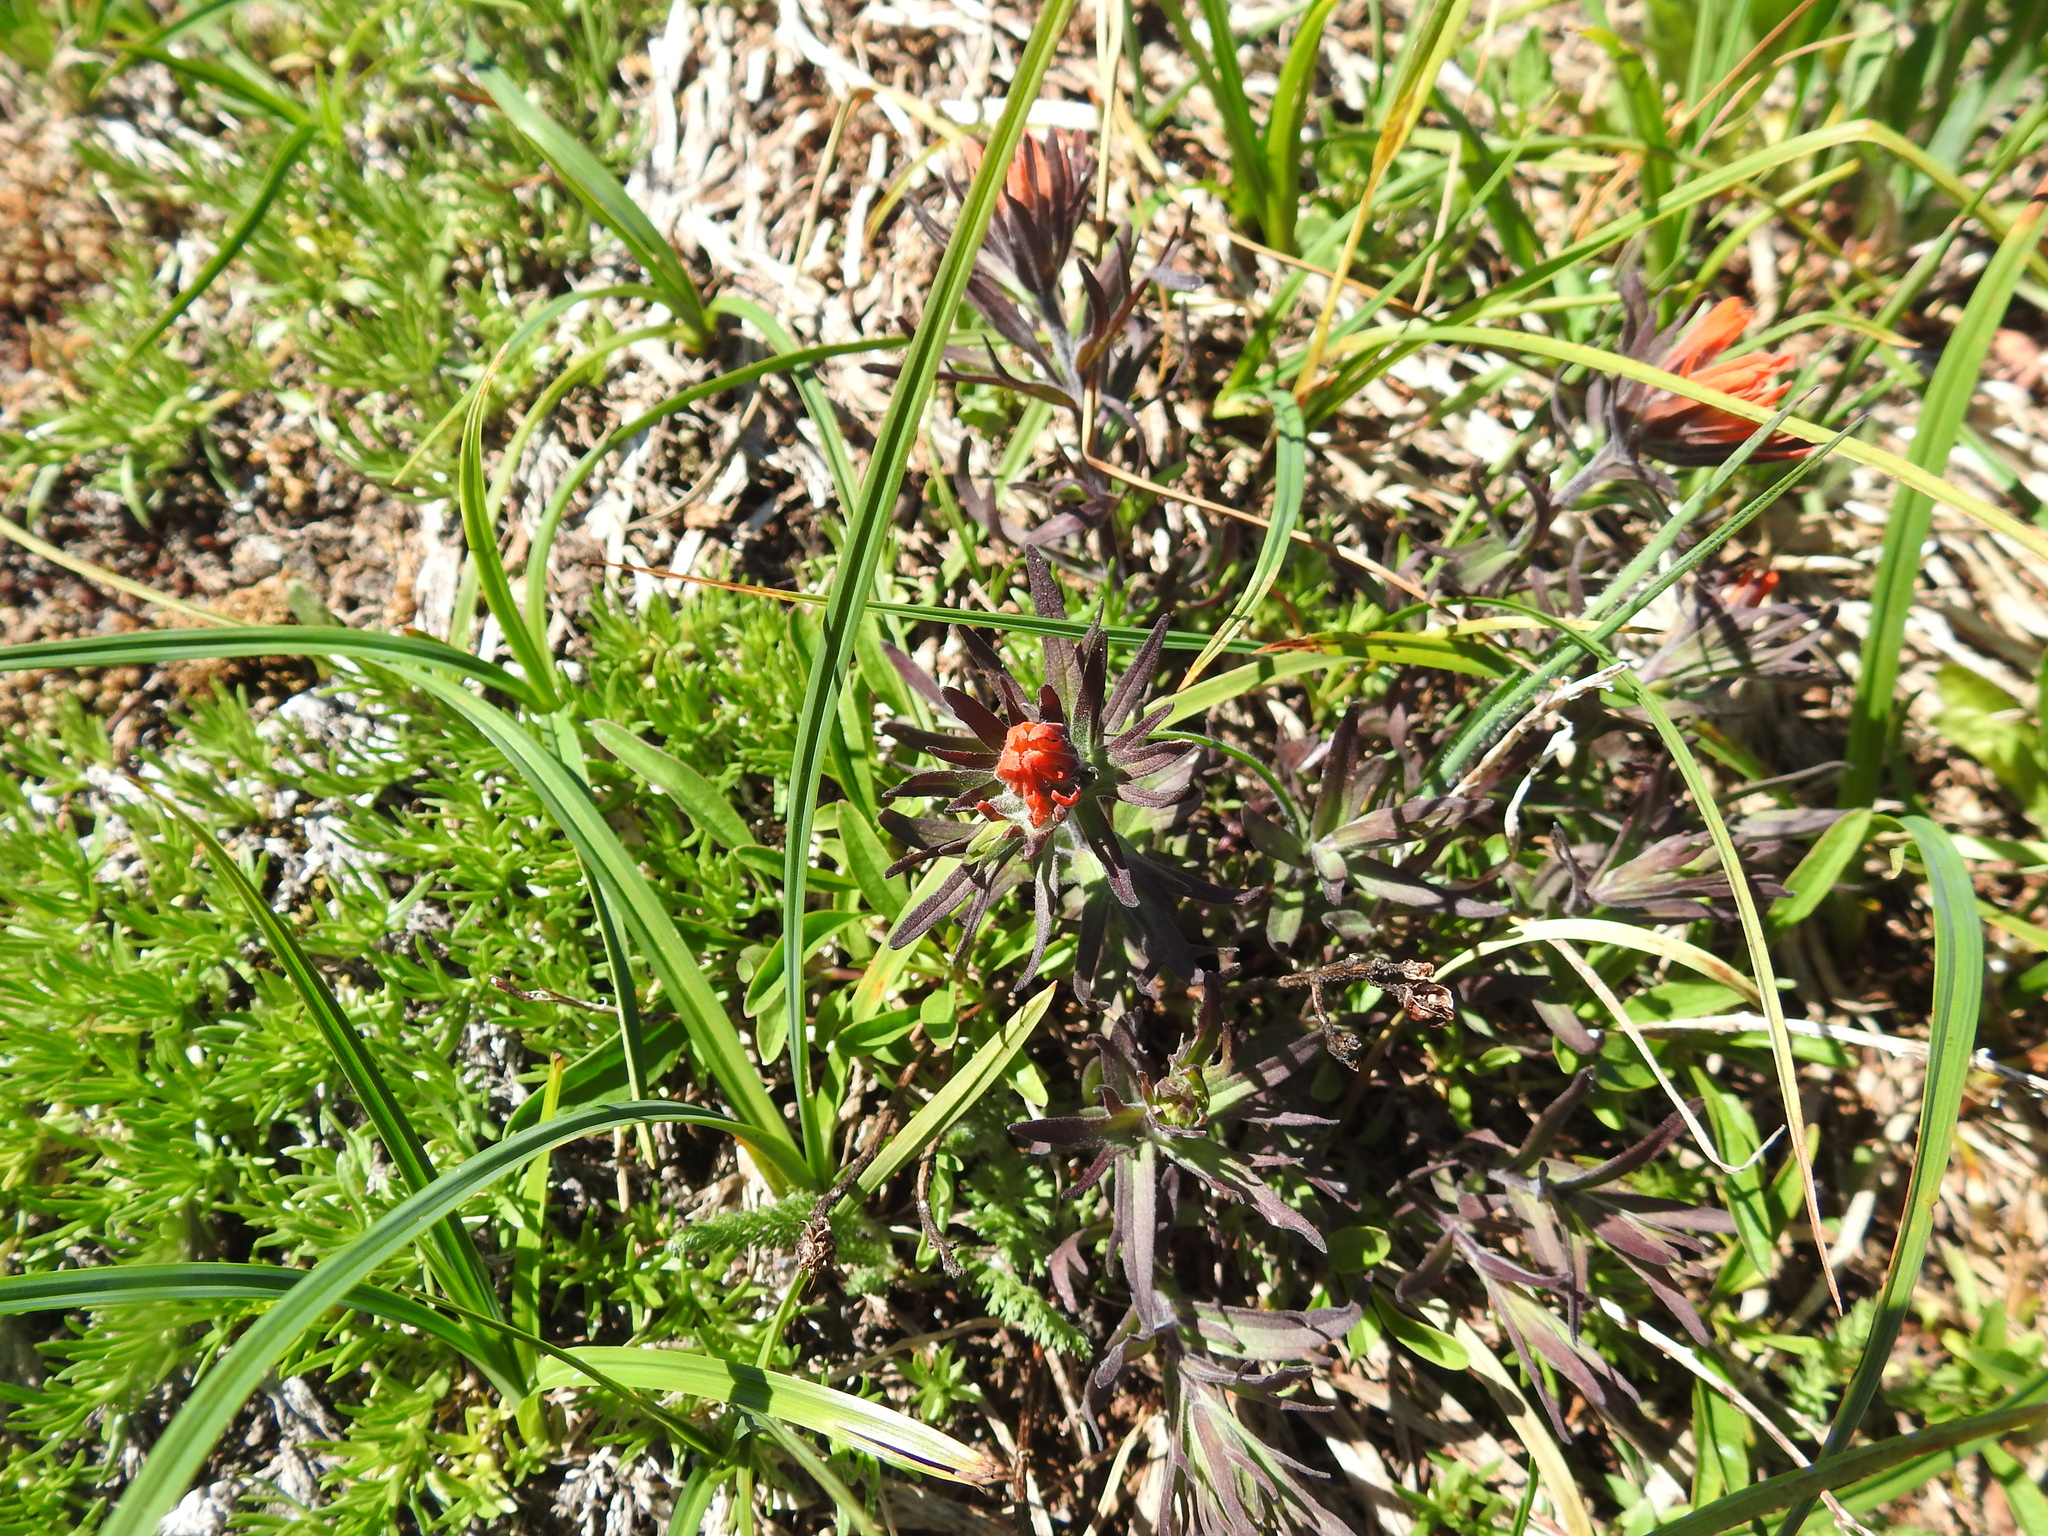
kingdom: Plantae
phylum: Tracheophyta
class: Magnoliopsida
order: Lamiales
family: Orobanchaceae
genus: Castilleja
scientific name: Castilleja rupicola
